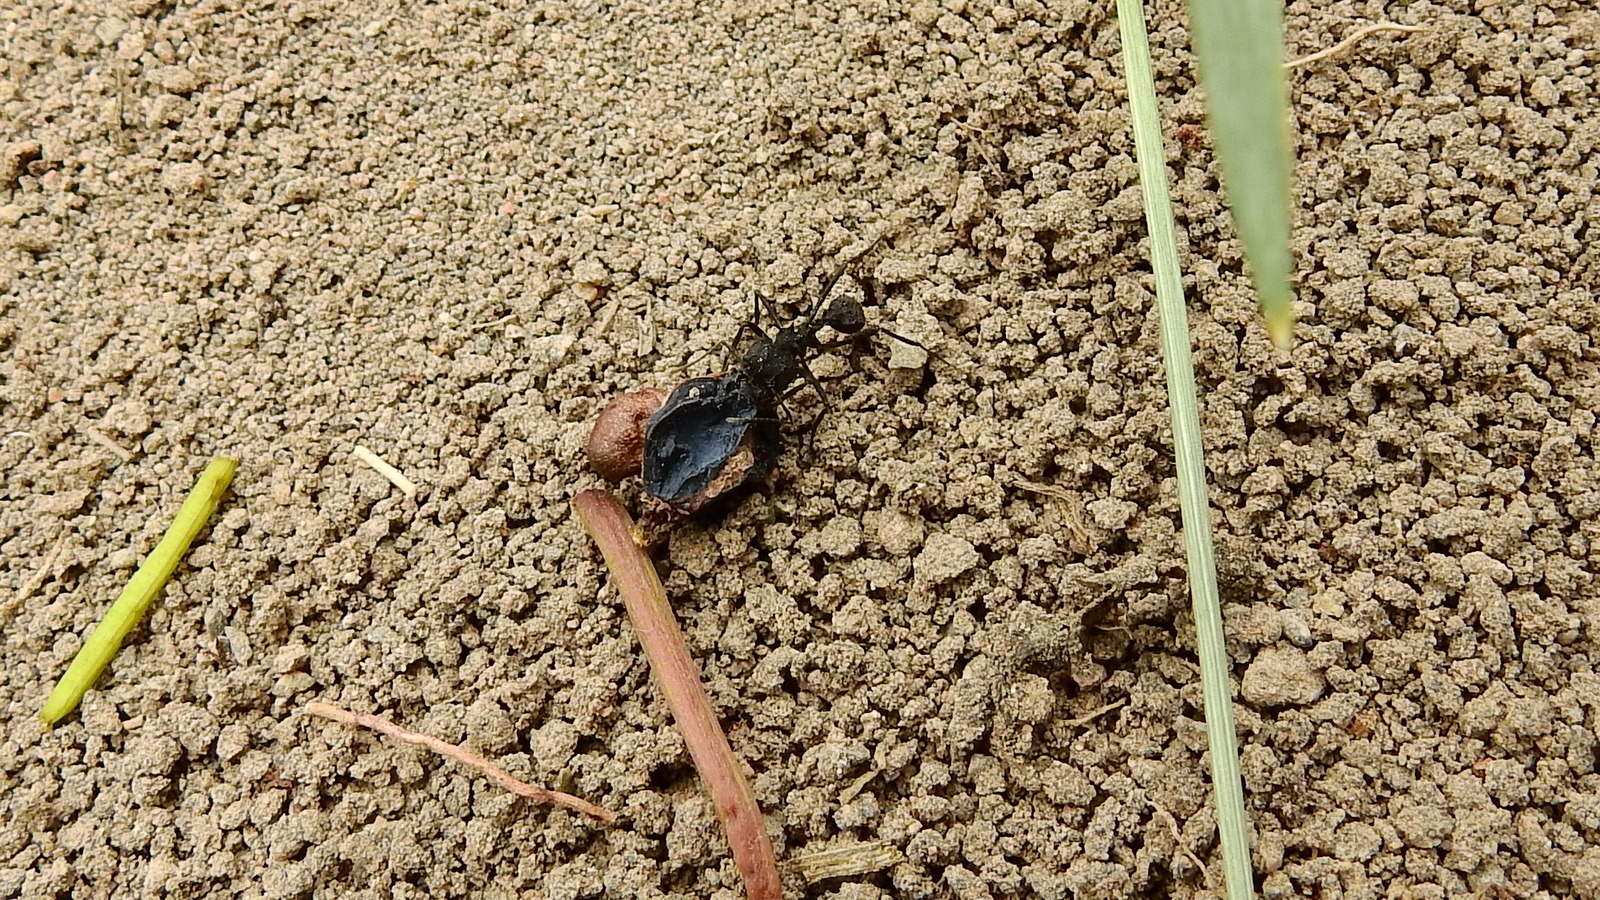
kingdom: Animalia
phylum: Arthropoda
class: Insecta
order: Hymenoptera
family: Formicidae
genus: Acromyrmex
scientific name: Acromyrmex lobicornis
